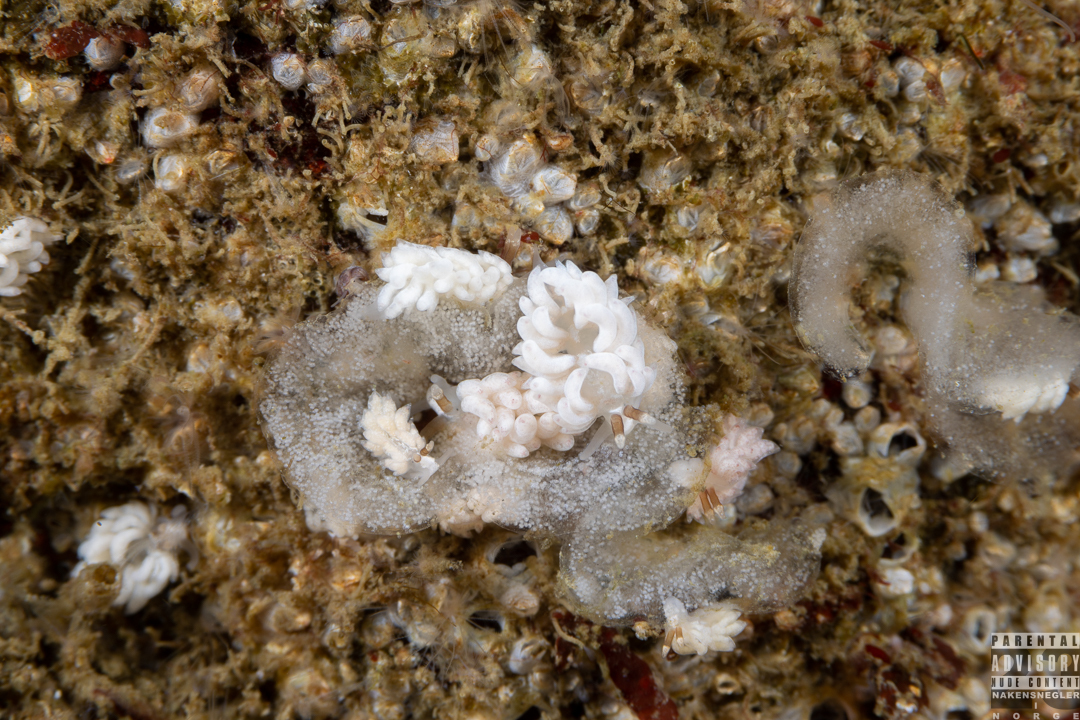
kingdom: Animalia
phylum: Mollusca
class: Gastropoda
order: Nudibranchia
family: Facelinidae
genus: Favorinus
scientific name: Favorinus branchialis
